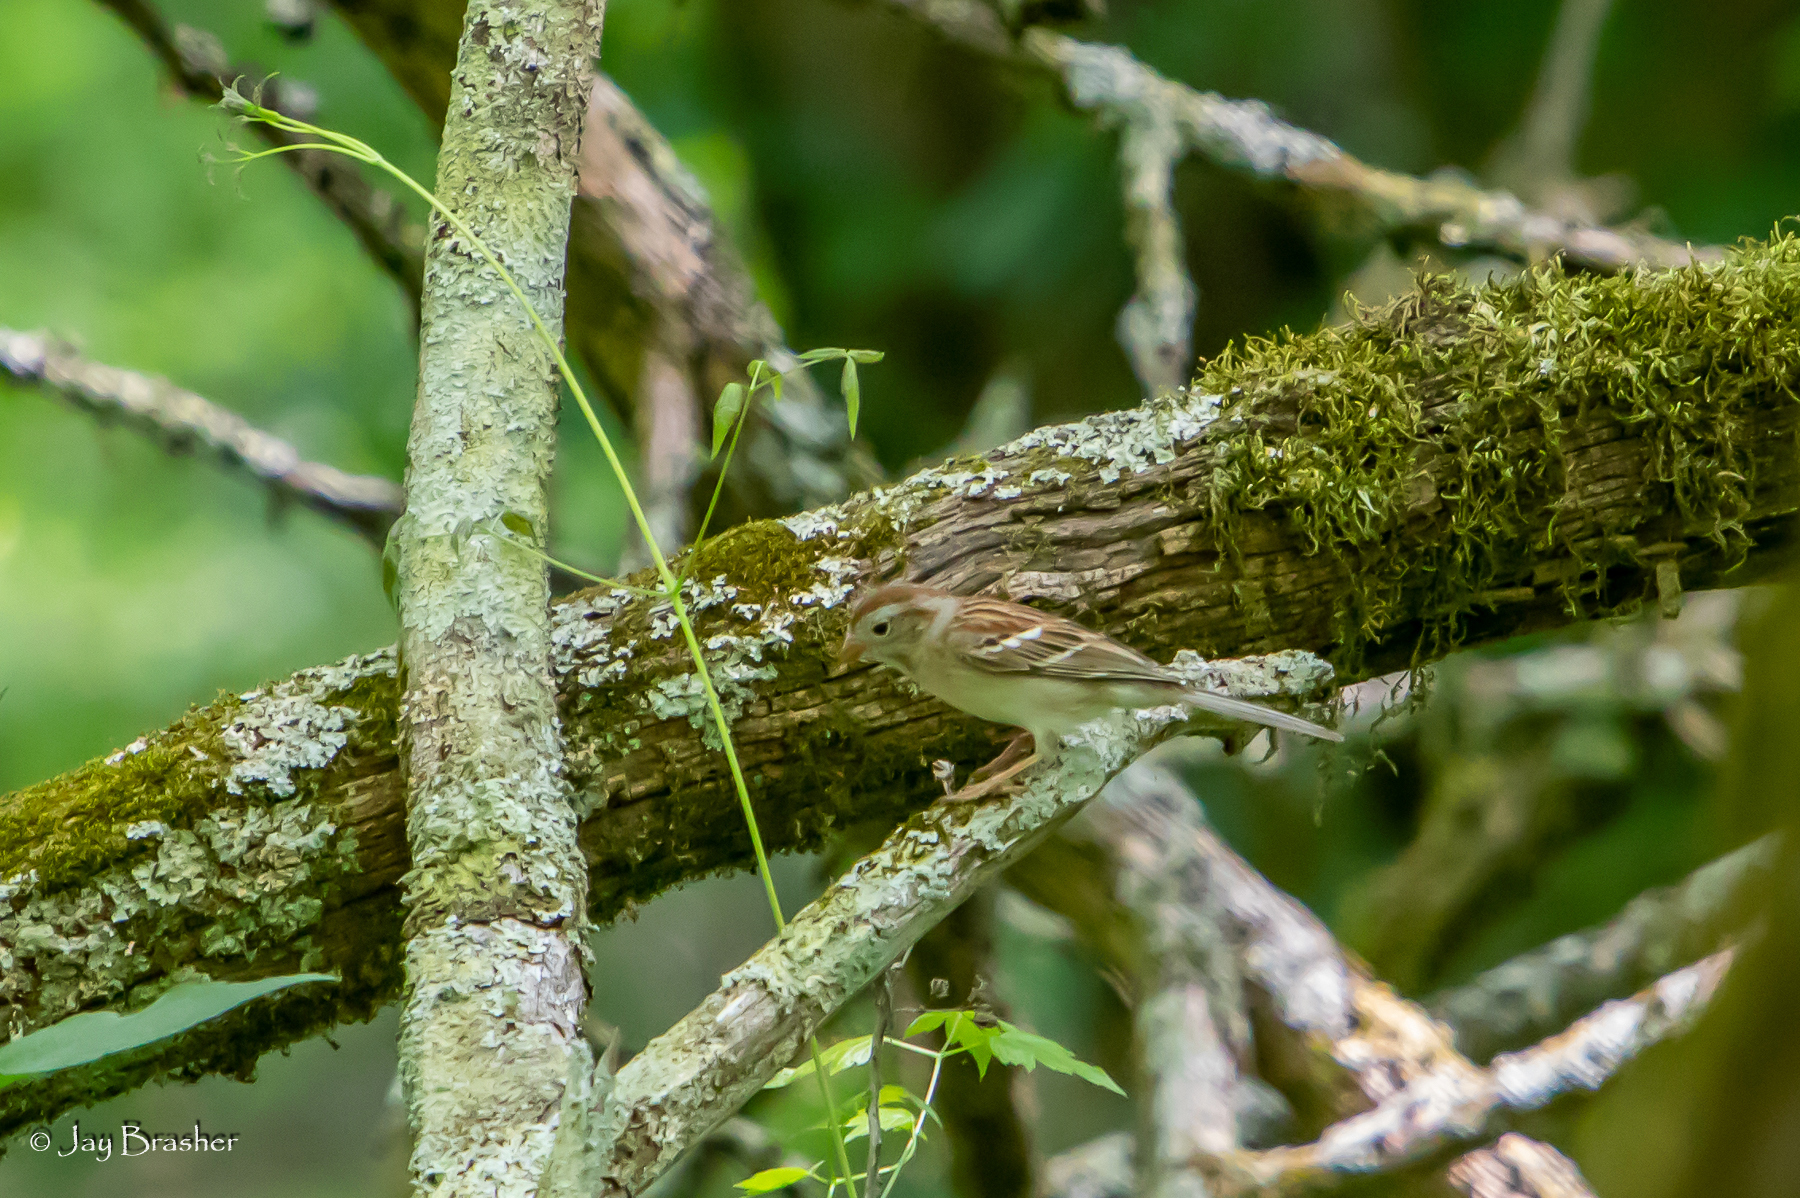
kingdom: Animalia
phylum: Chordata
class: Aves
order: Passeriformes
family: Passerellidae
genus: Spizella
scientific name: Spizella pusilla
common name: Field sparrow
